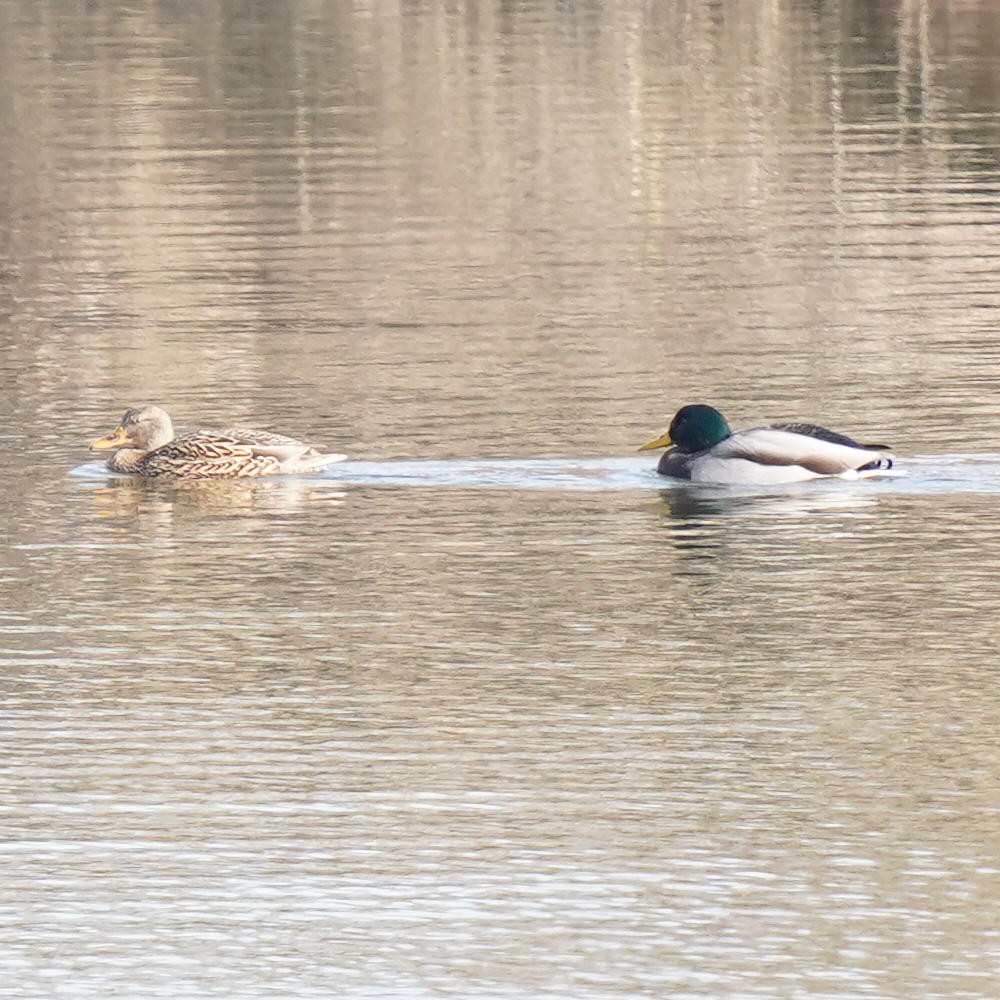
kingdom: Animalia
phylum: Chordata
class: Aves
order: Anseriformes
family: Anatidae
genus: Anas
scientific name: Anas platyrhynchos
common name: Mallard
